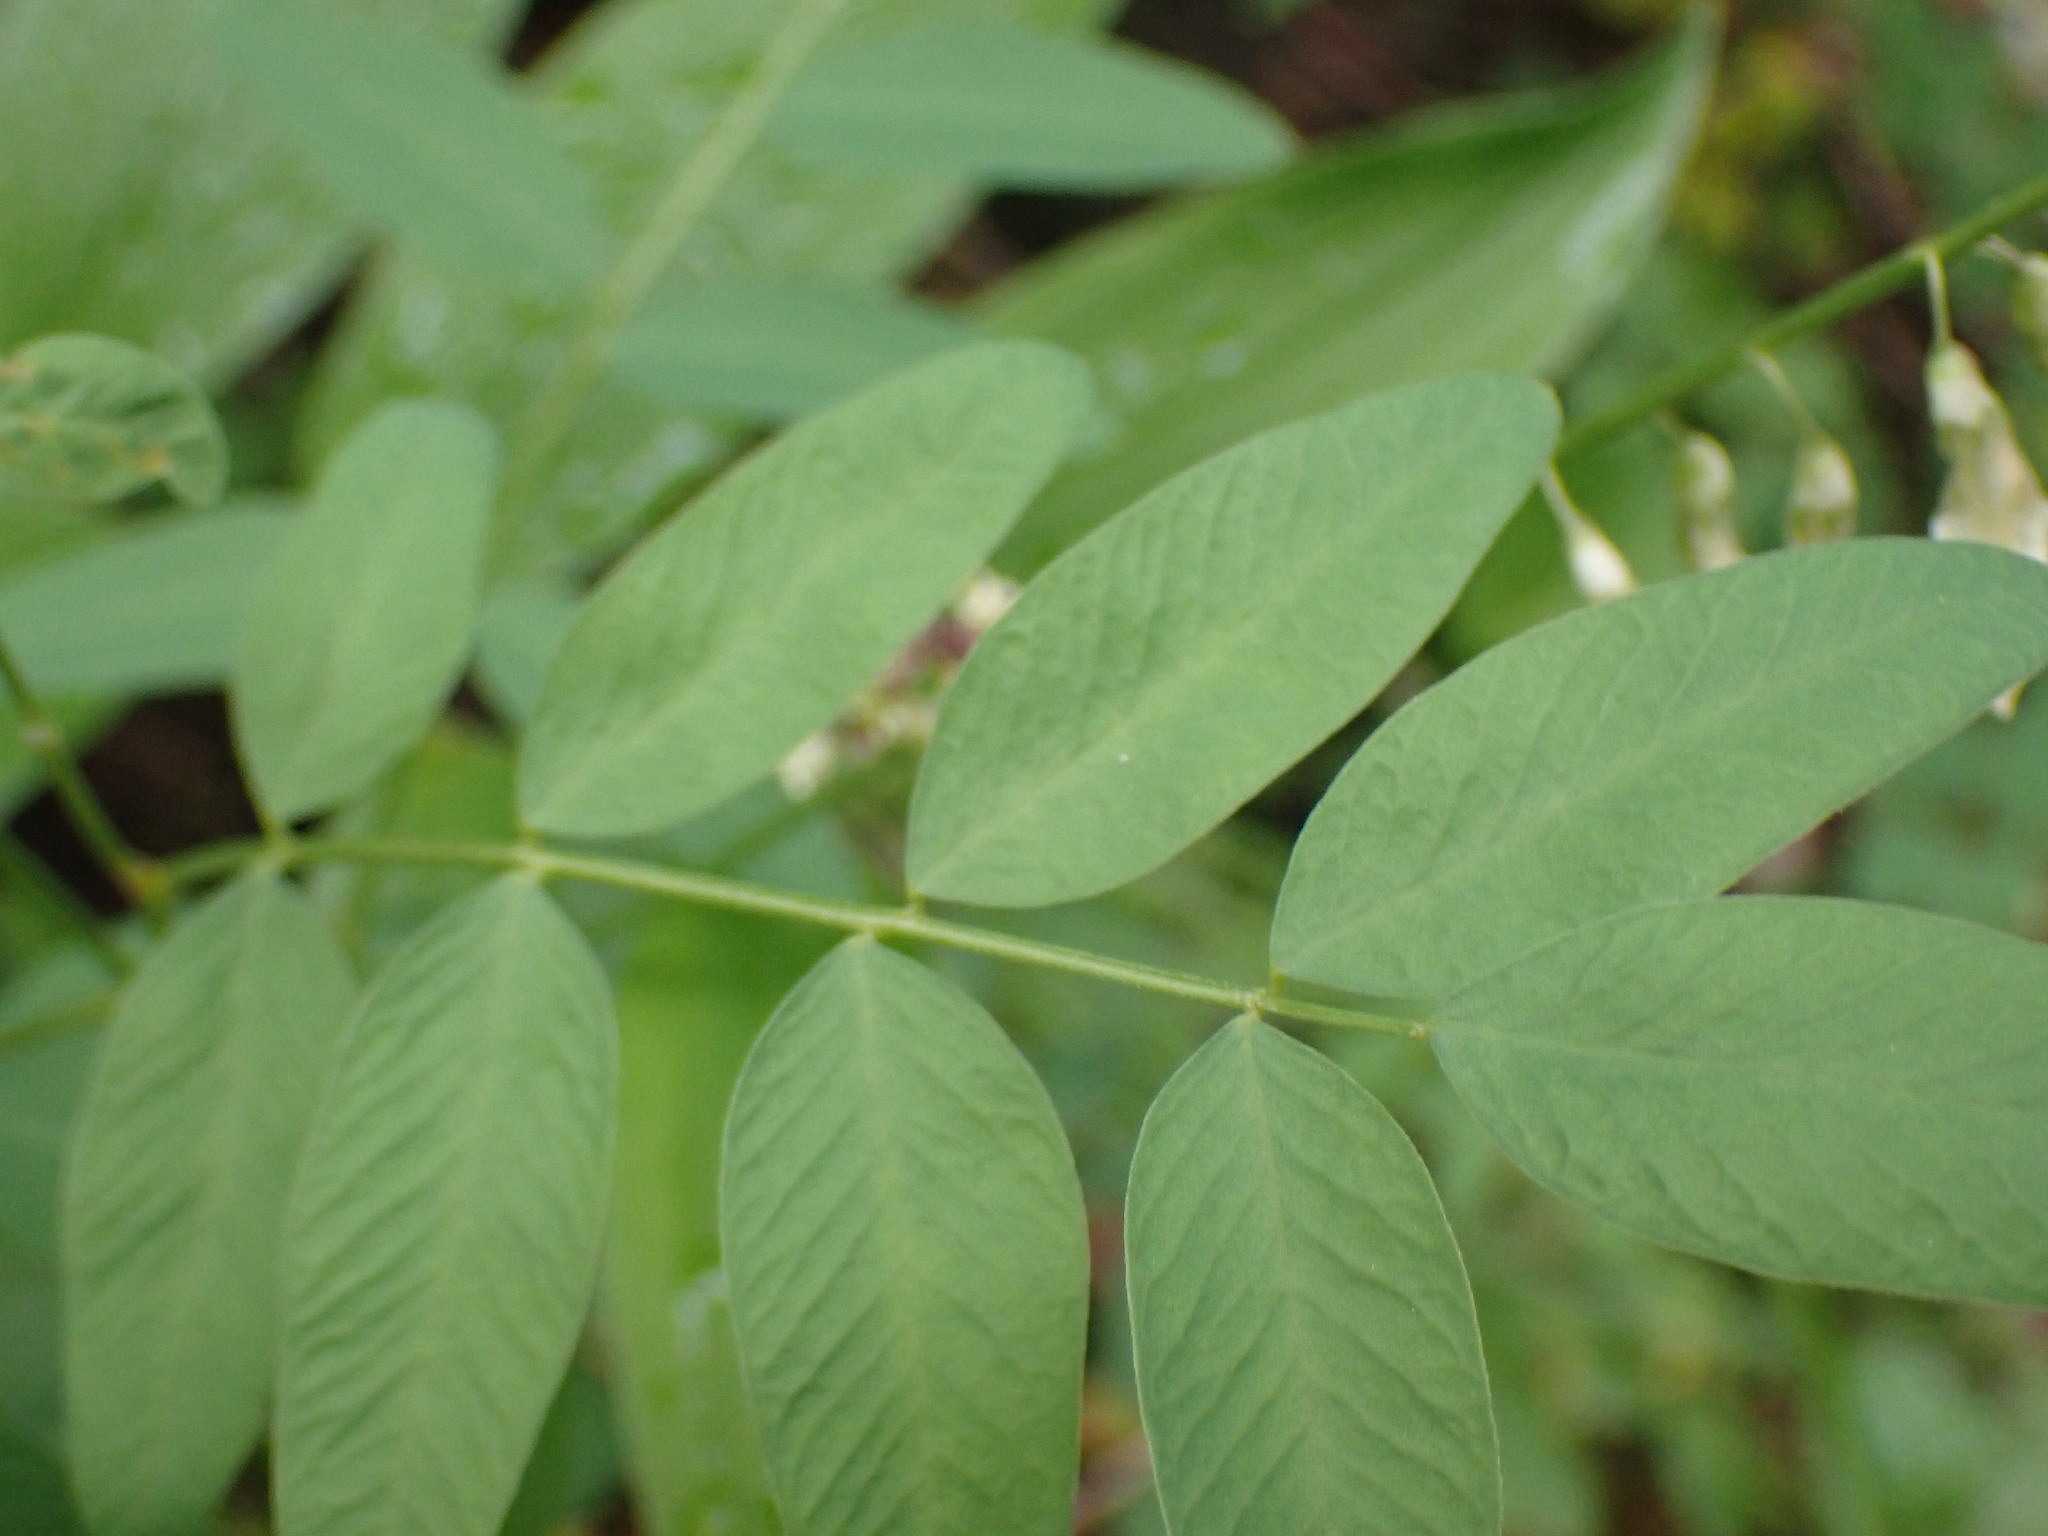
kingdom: Plantae
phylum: Tracheophyta
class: Magnoliopsida
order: Fabales
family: Fabaceae
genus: Hedysarum
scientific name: Hedysarum sulphurescens
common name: Sulphur hedysarum
